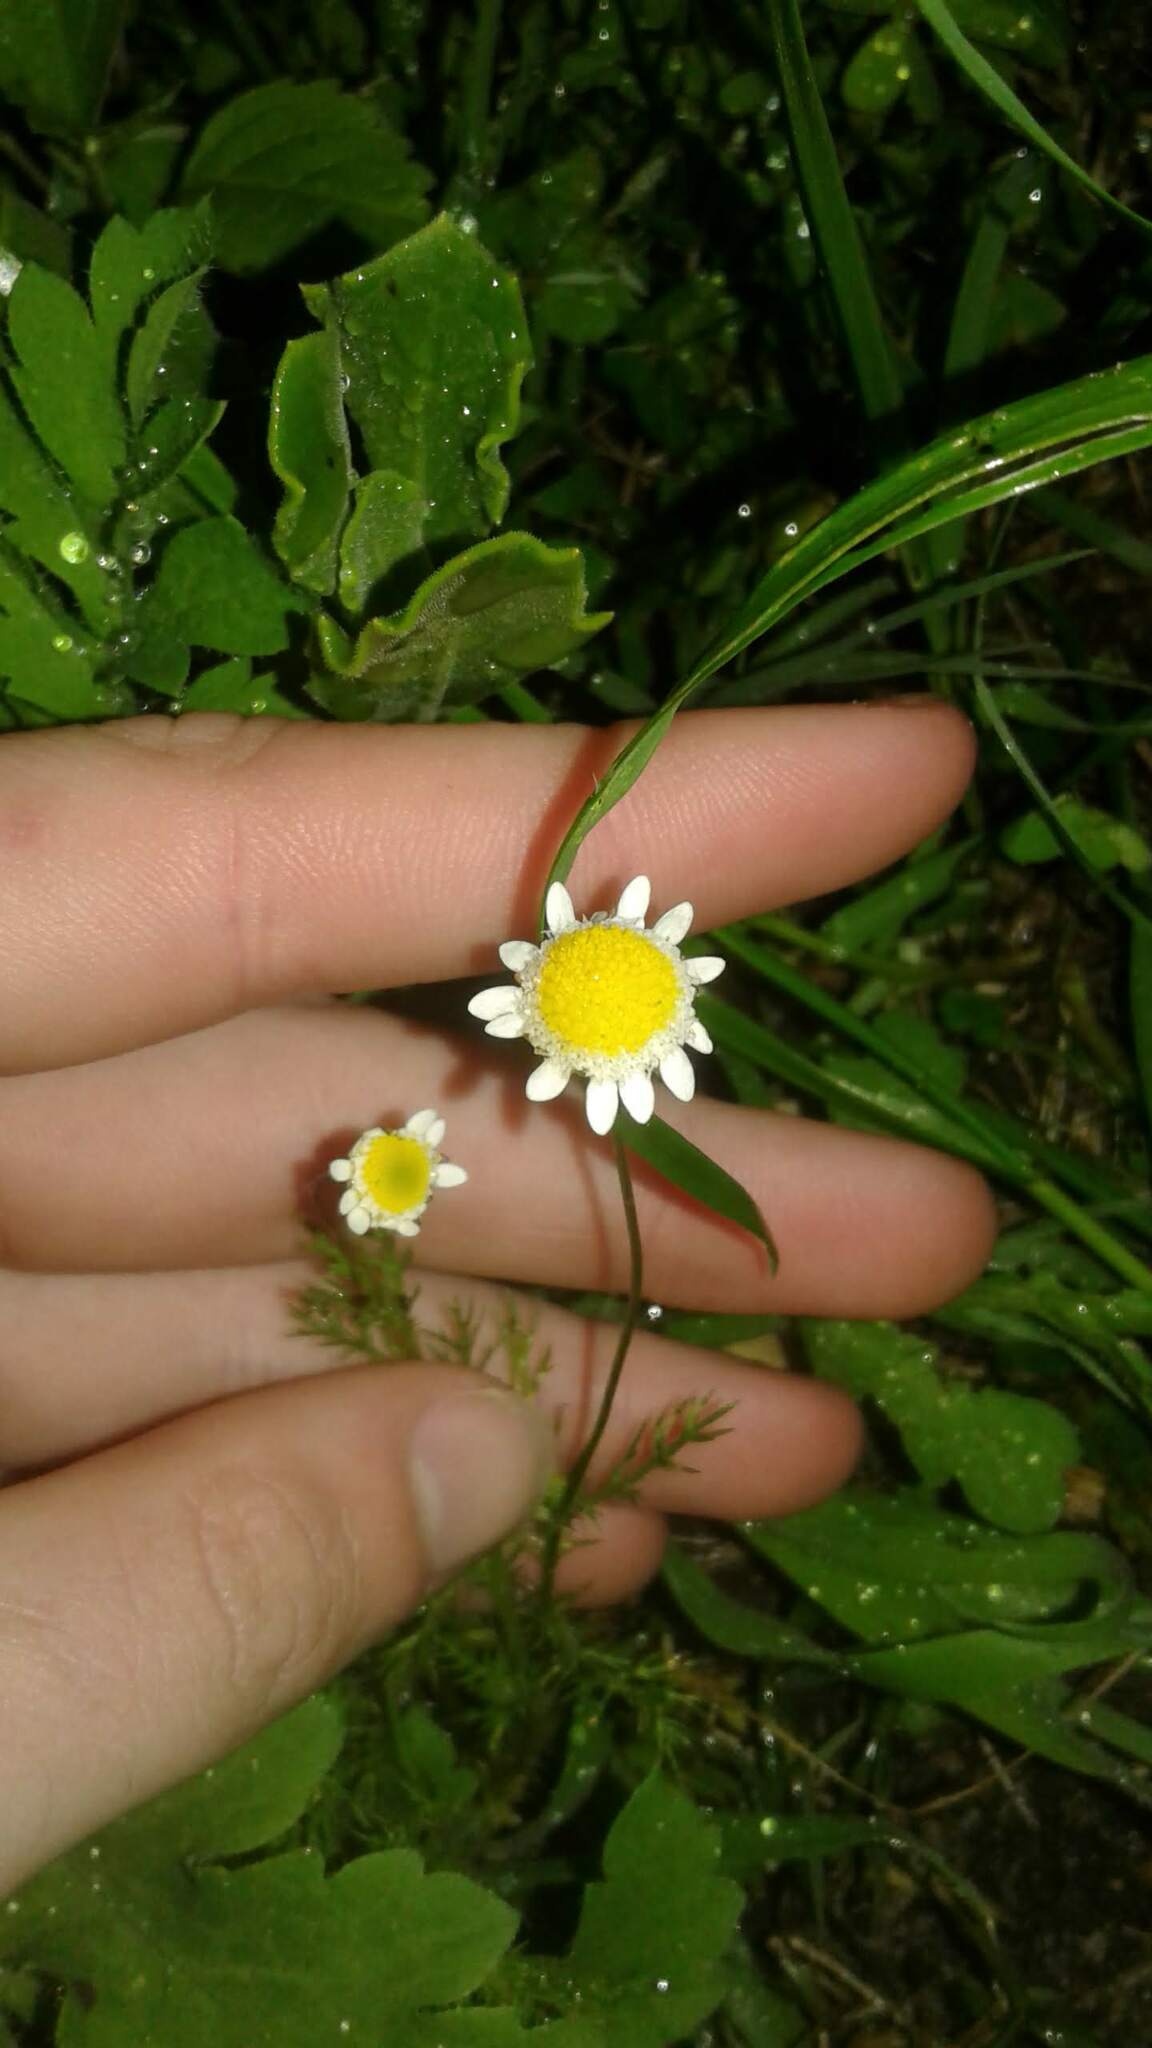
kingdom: Plantae
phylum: Tracheophyta
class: Magnoliopsida
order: Asterales
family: Asteraceae
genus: Cotula
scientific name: Cotula turbinata
